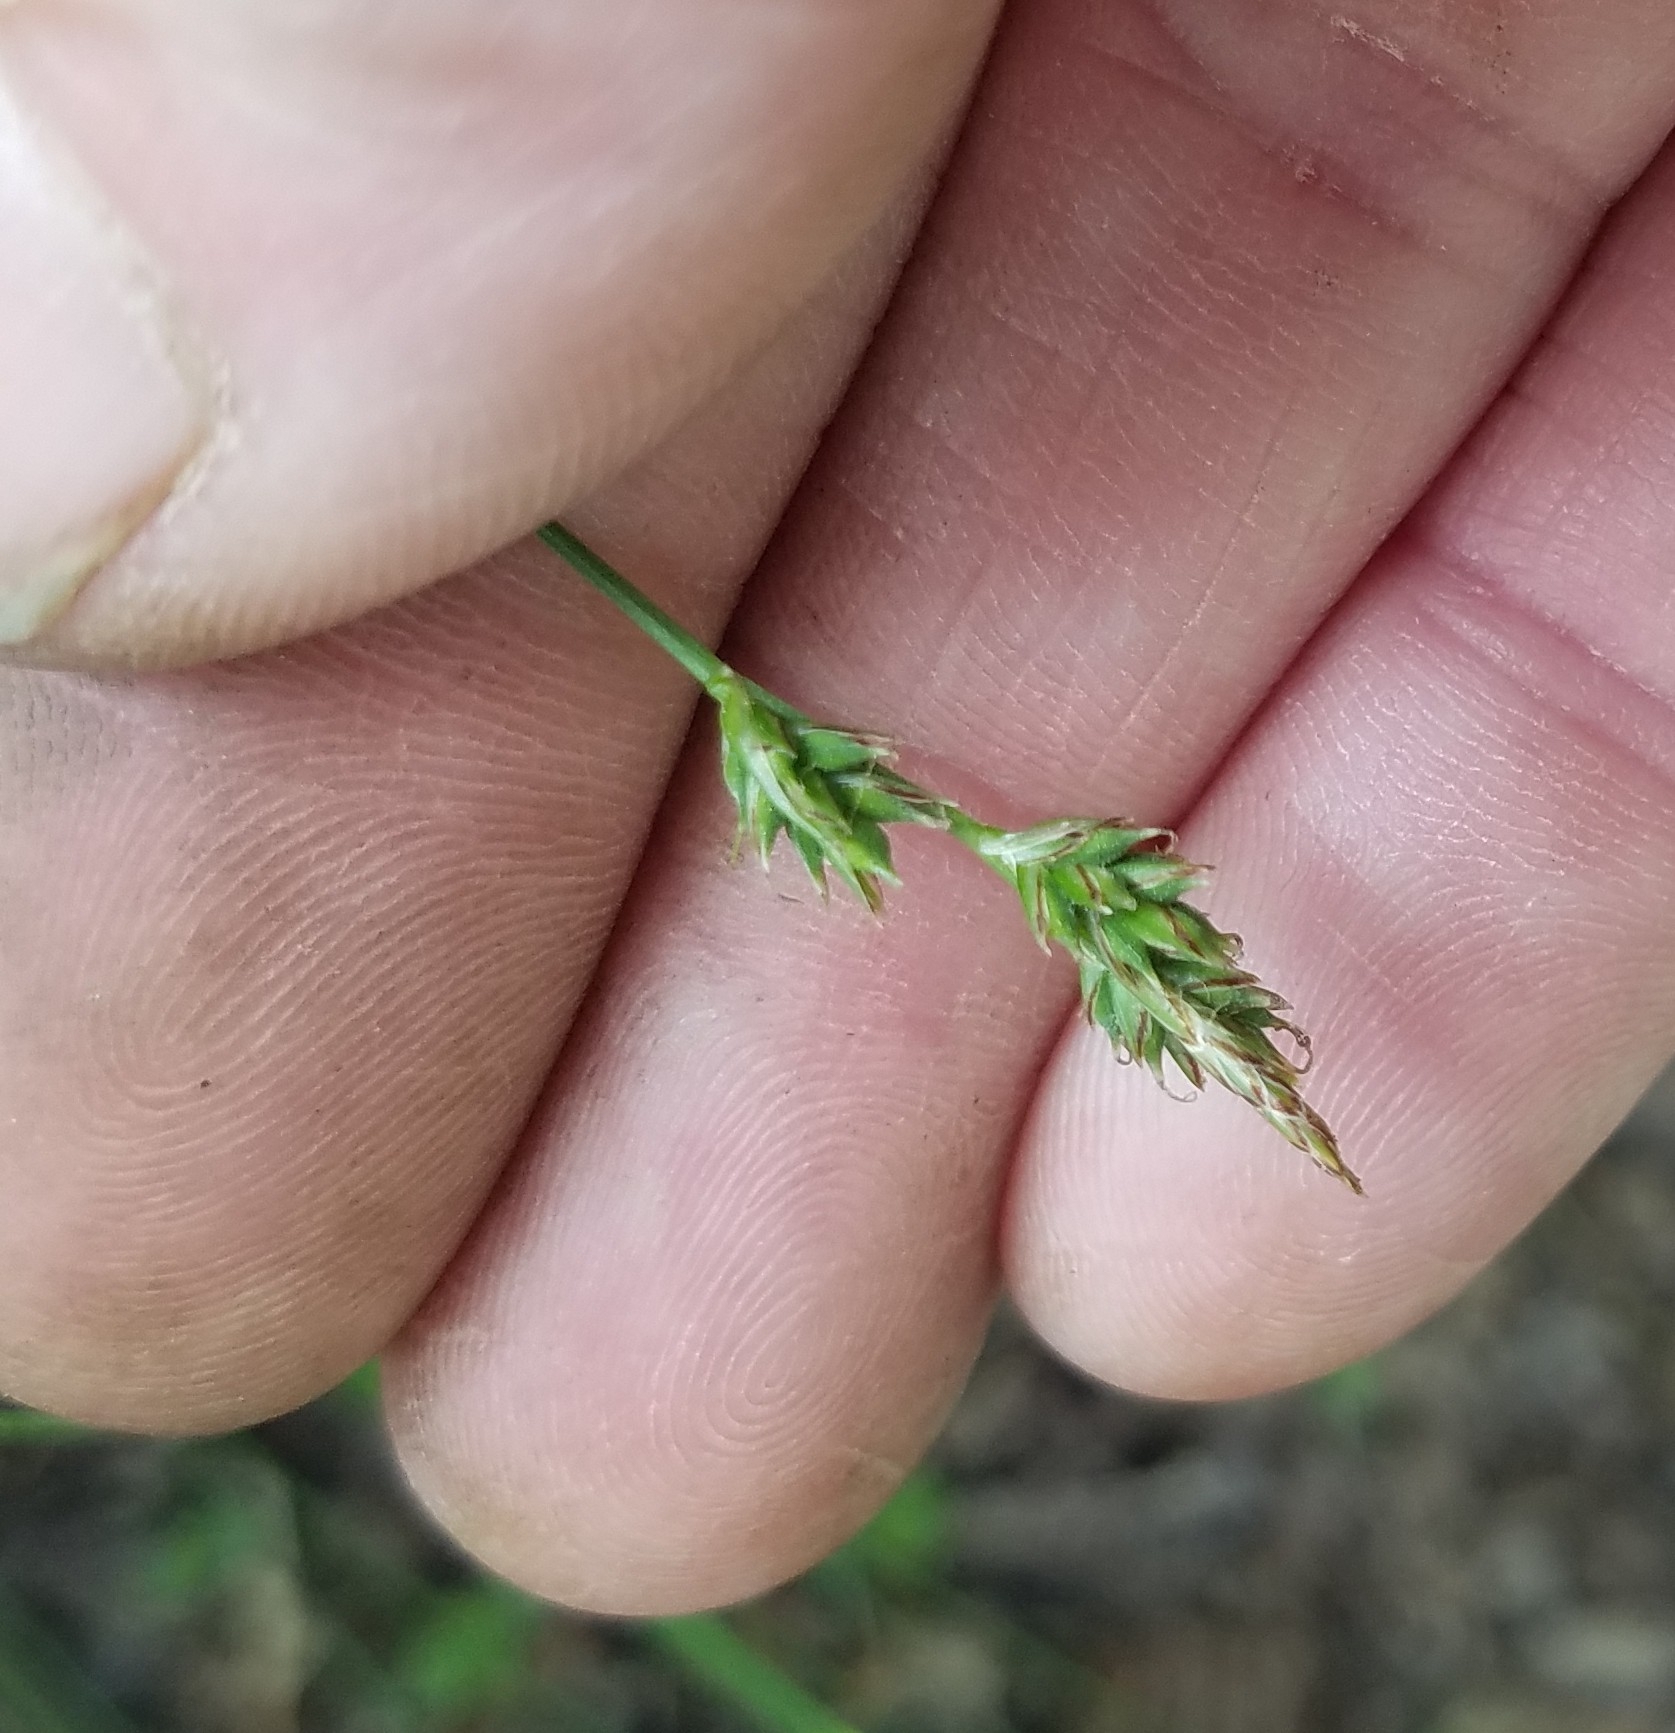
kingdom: Plantae
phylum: Tracheophyta
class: Liliopsida
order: Poales
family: Cyperaceae
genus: Carex
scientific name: Carex albicans
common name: Bellow-beaked sedge
